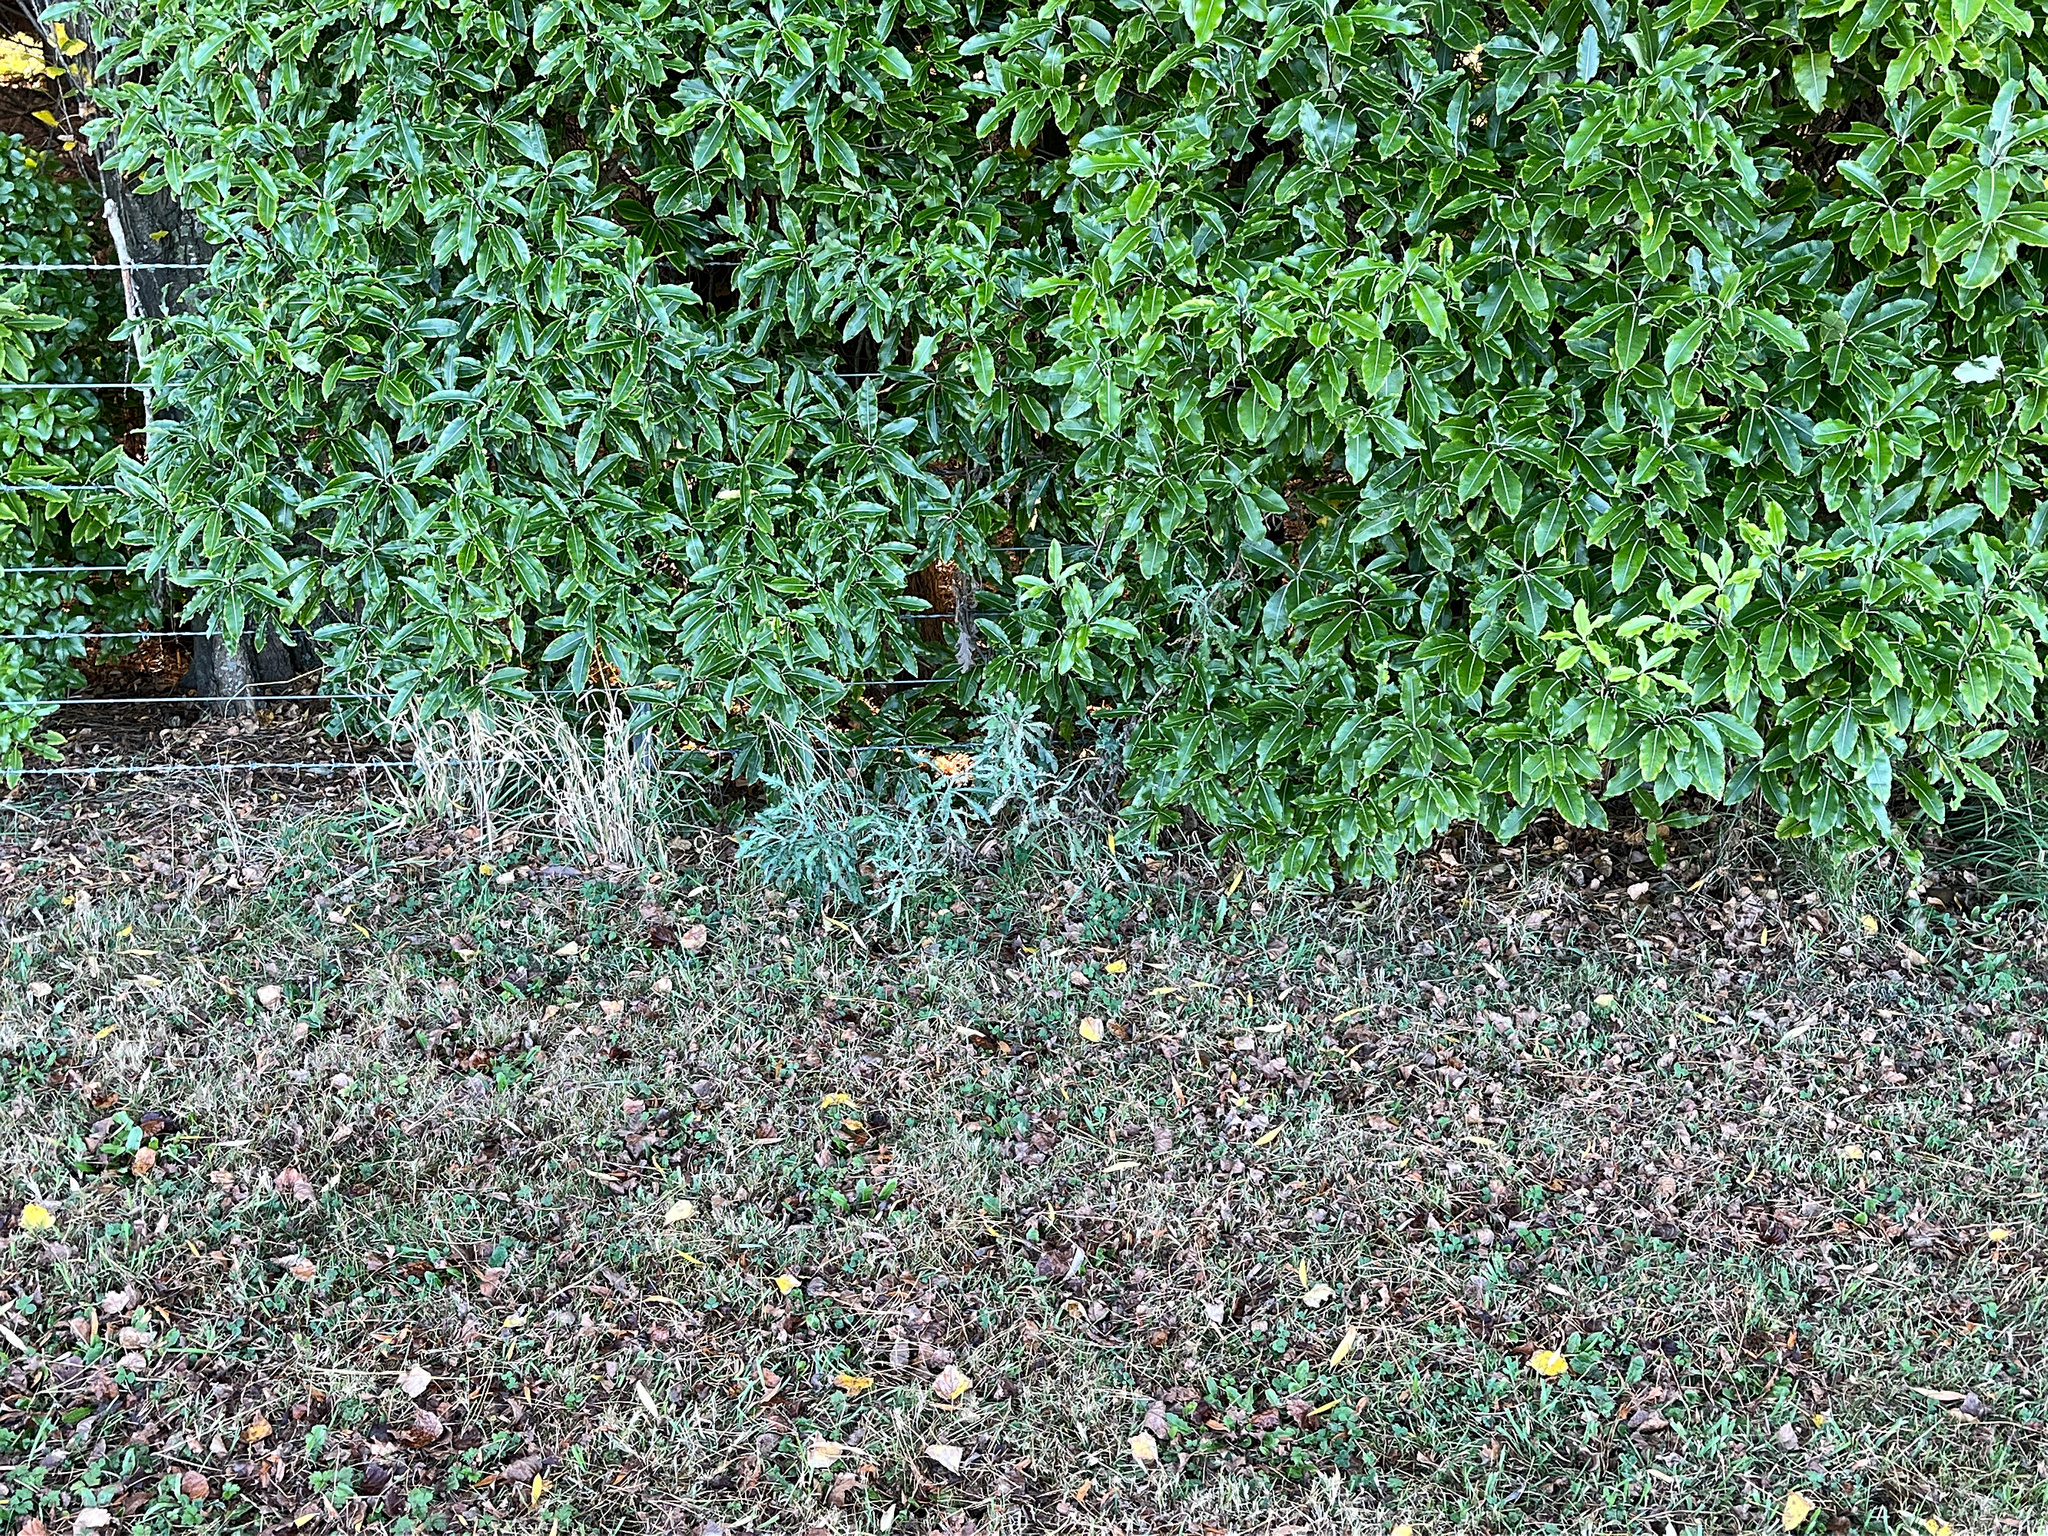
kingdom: Plantae
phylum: Tracheophyta
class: Magnoliopsida
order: Asterales
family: Asteraceae
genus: Senecio
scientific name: Senecio glomeratus
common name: Cutleaf burnweed
